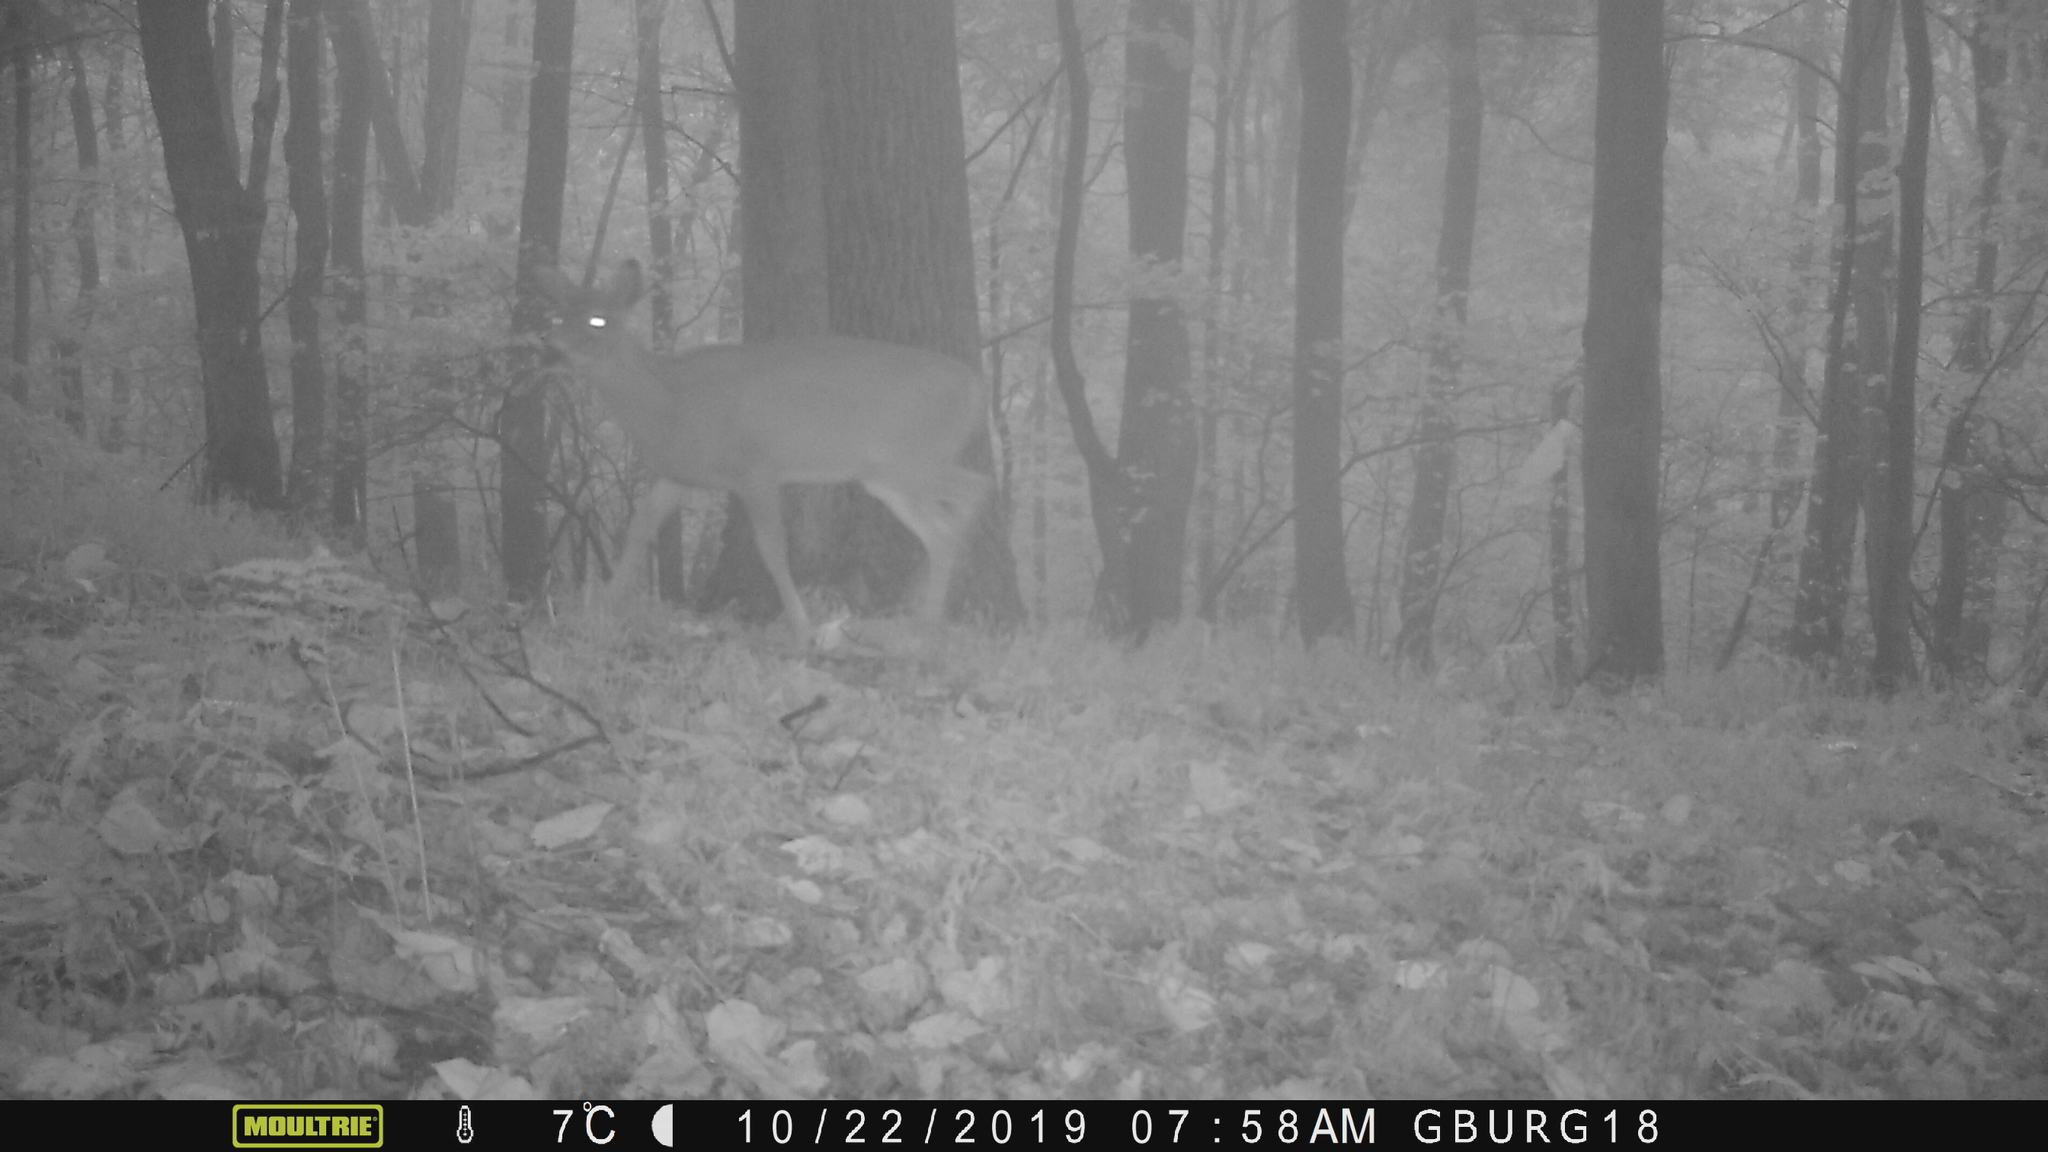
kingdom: Animalia
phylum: Chordata
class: Mammalia
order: Artiodactyla
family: Cervidae
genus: Odocoileus
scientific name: Odocoileus virginianus
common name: White-tailed deer
